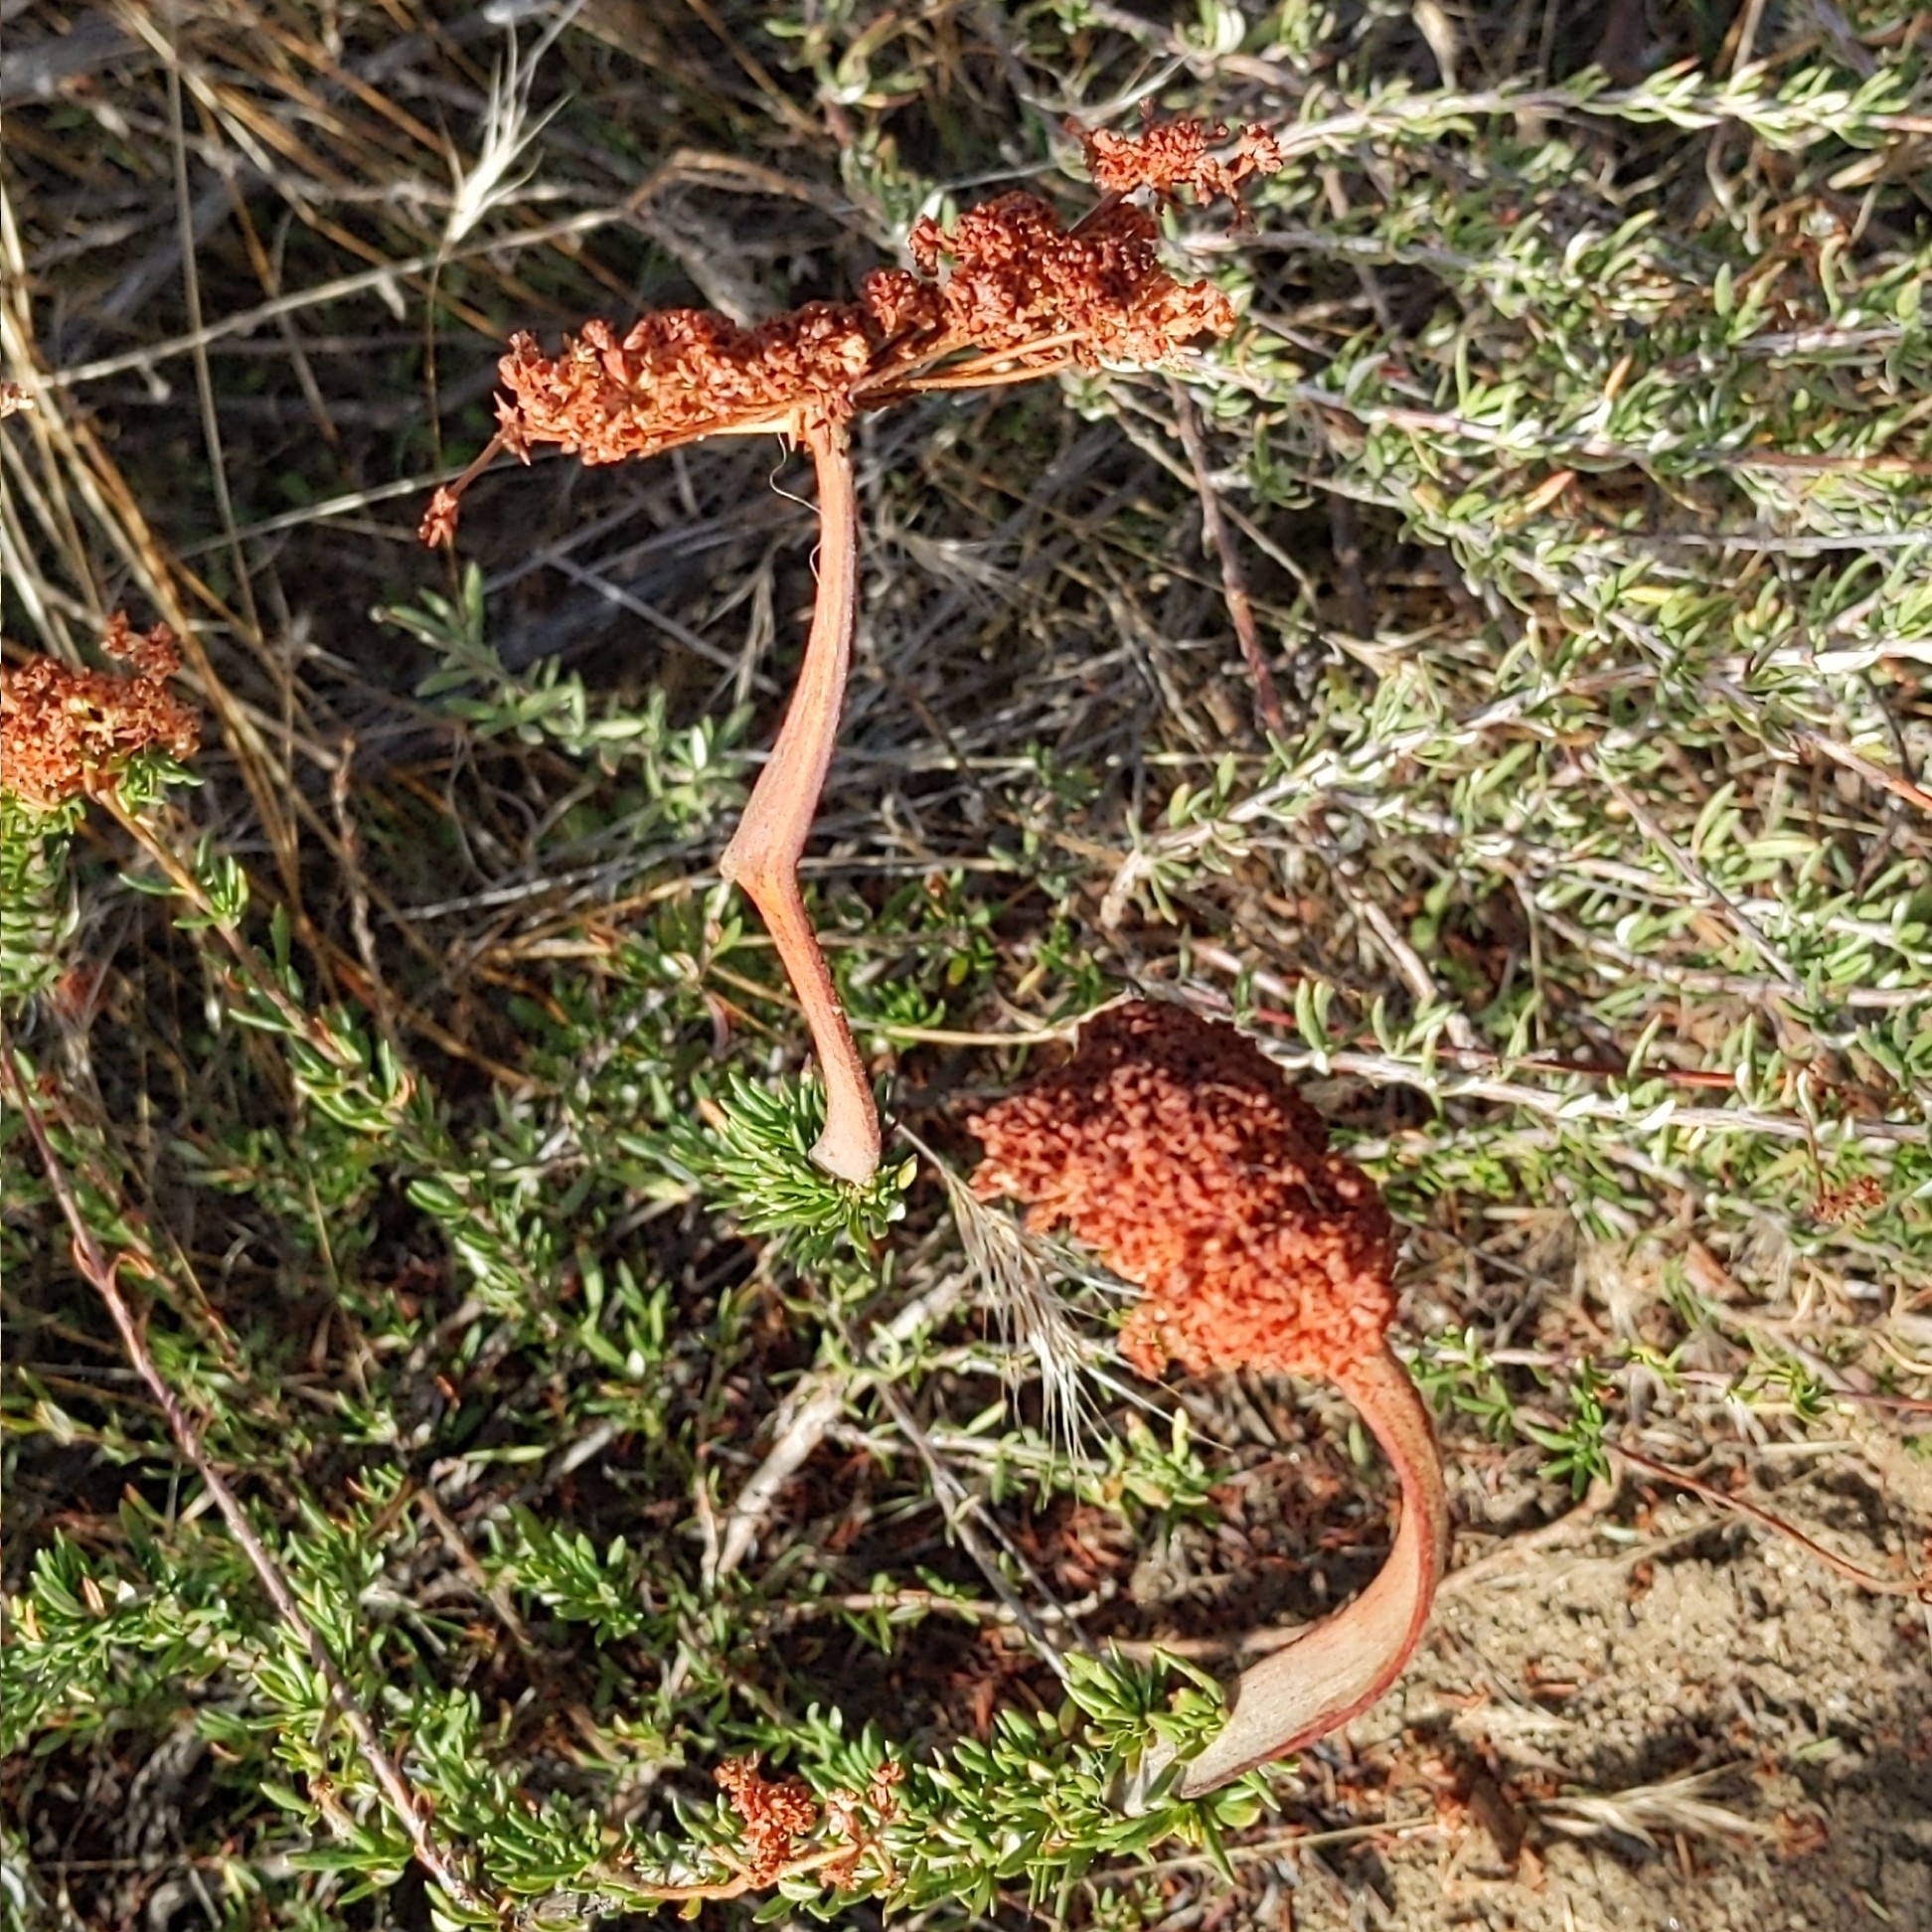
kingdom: Plantae
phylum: Tracheophyta
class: Magnoliopsida
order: Caryophyllales
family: Polygonaceae
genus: Eriogonum
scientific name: Eriogonum fasciculatum
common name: California wild buckwheat
